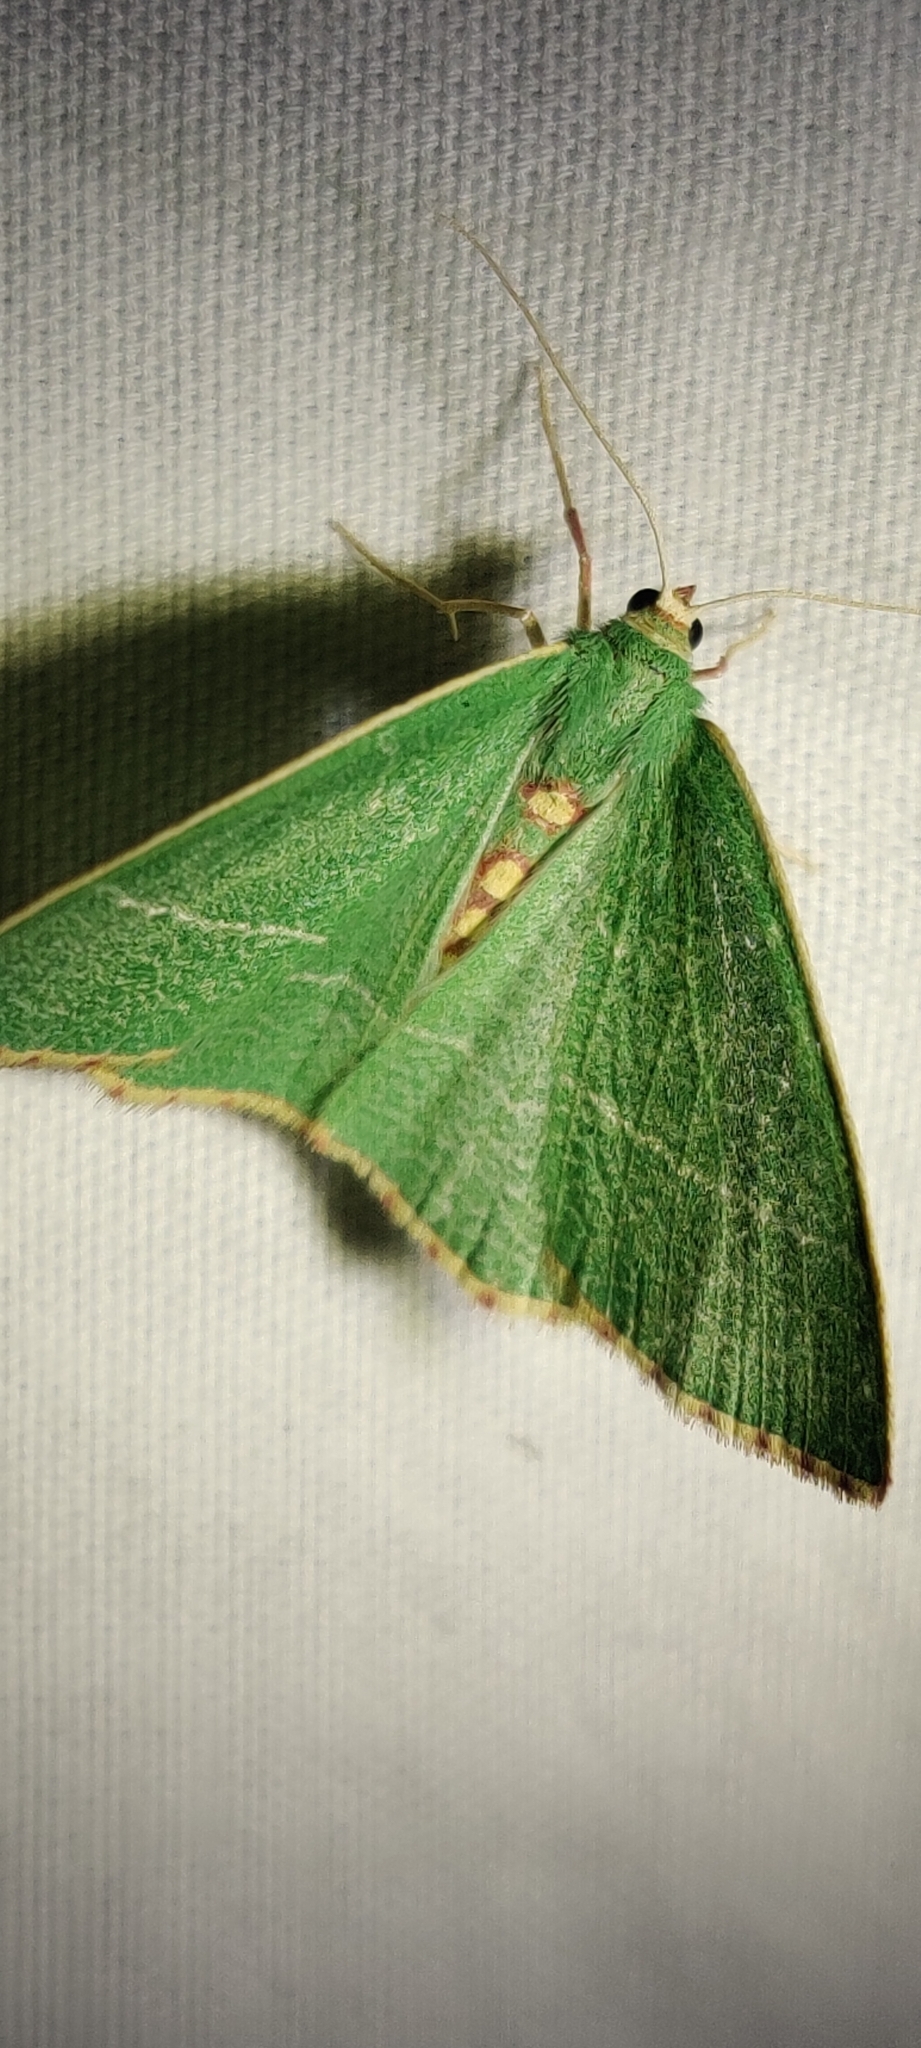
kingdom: Animalia
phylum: Arthropoda
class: Insecta
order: Lepidoptera
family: Geometridae
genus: Nemoria
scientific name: Nemoria glaucomarginaria
